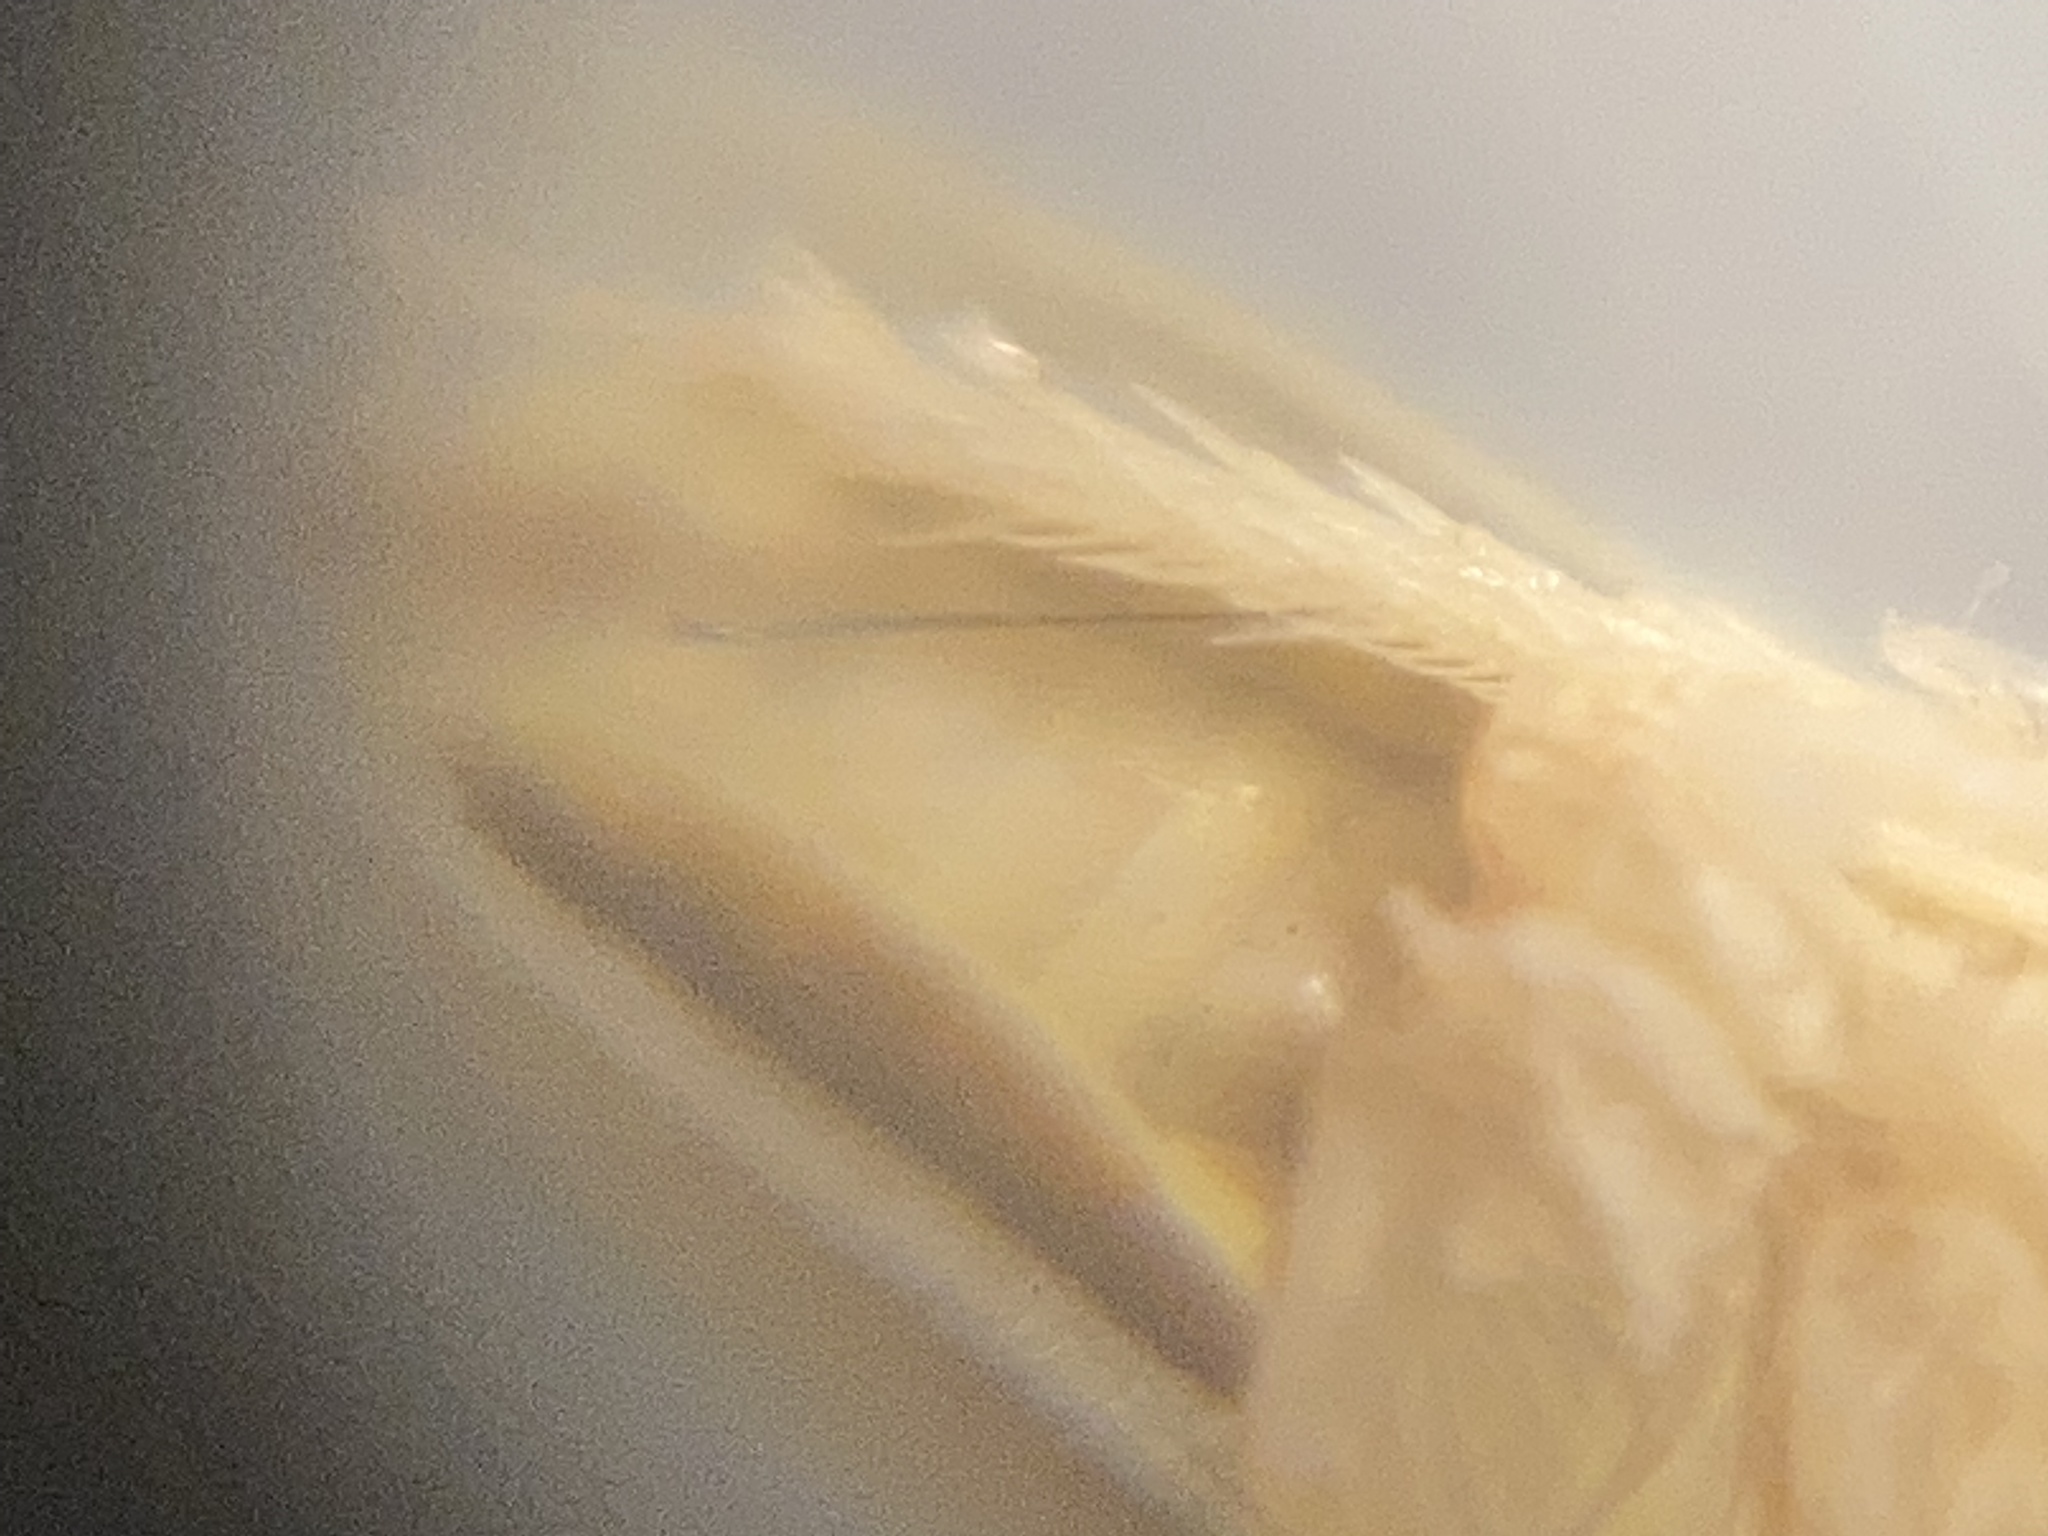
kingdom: Animalia
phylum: Arthropoda
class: Insecta
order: Hemiptera
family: Cicadellidae
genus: Xyphon
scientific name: Xyphon flaviceps
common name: Yellowheaded leafhopper
